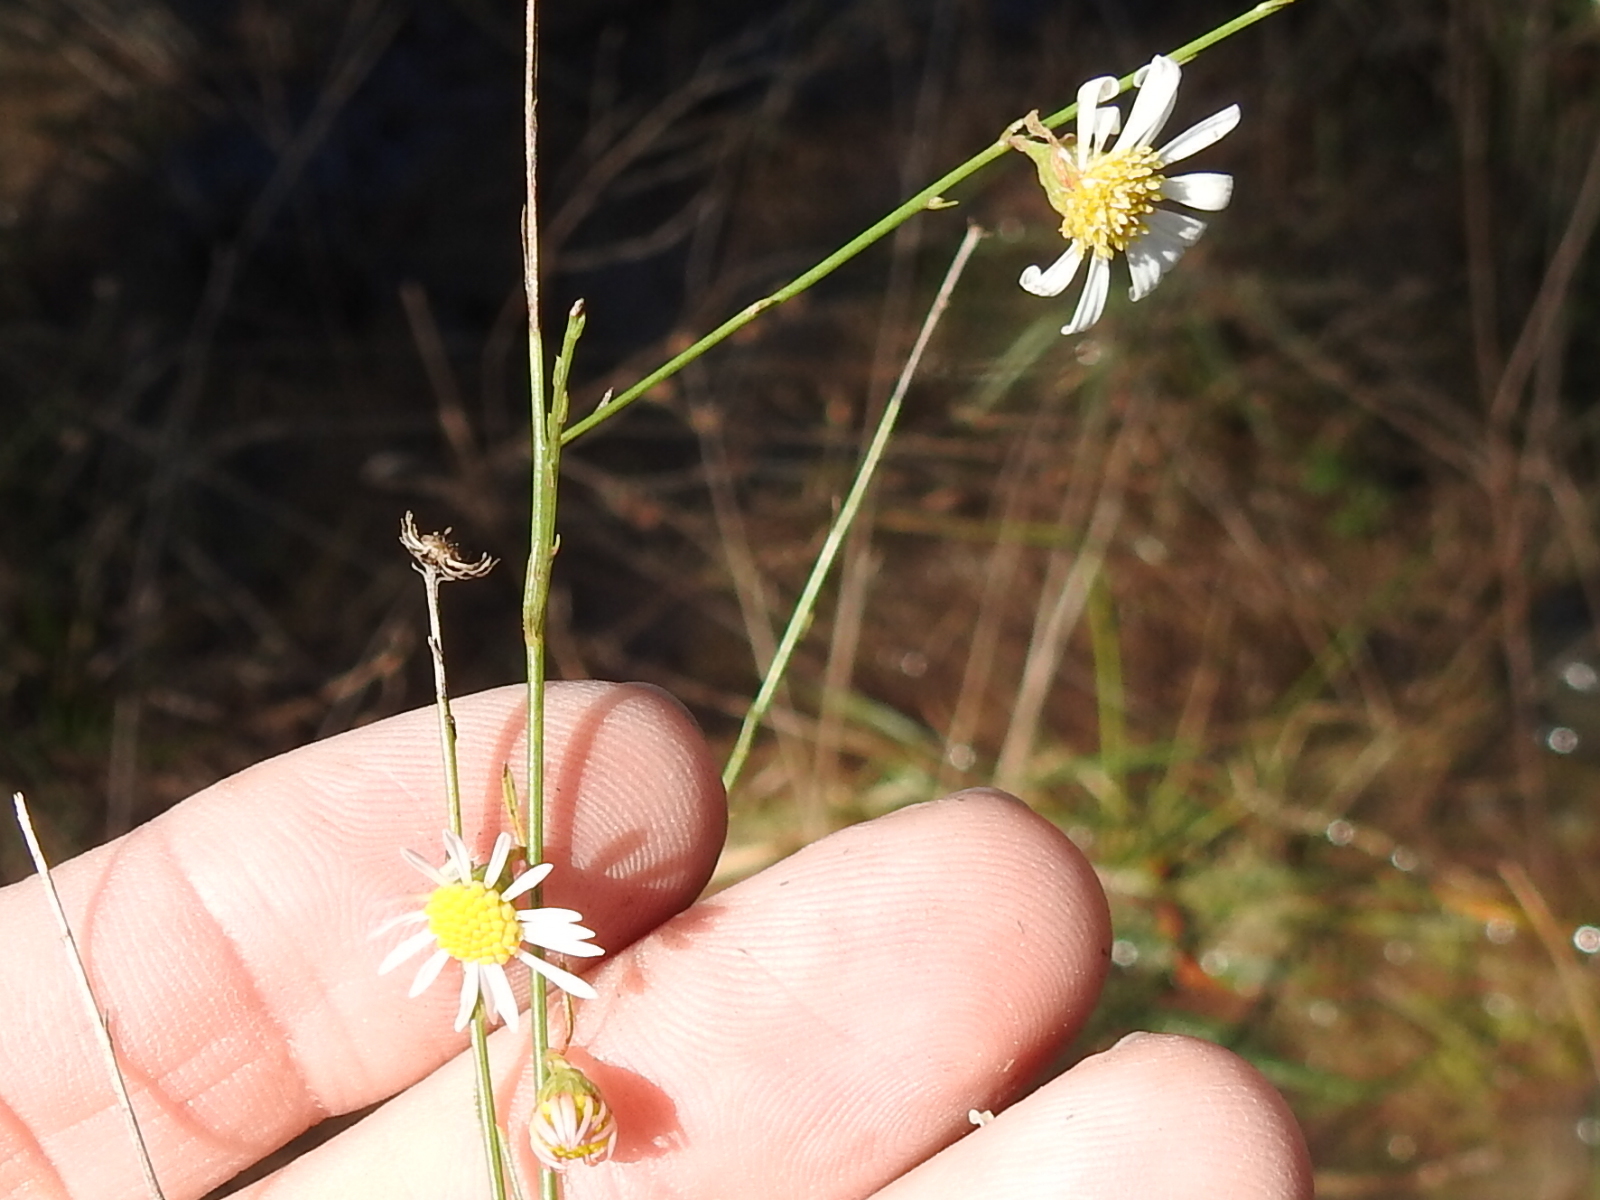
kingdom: Plantae
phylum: Tracheophyta
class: Magnoliopsida
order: Asterales
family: Asteraceae
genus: Boltonia
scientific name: Boltonia diffusa
